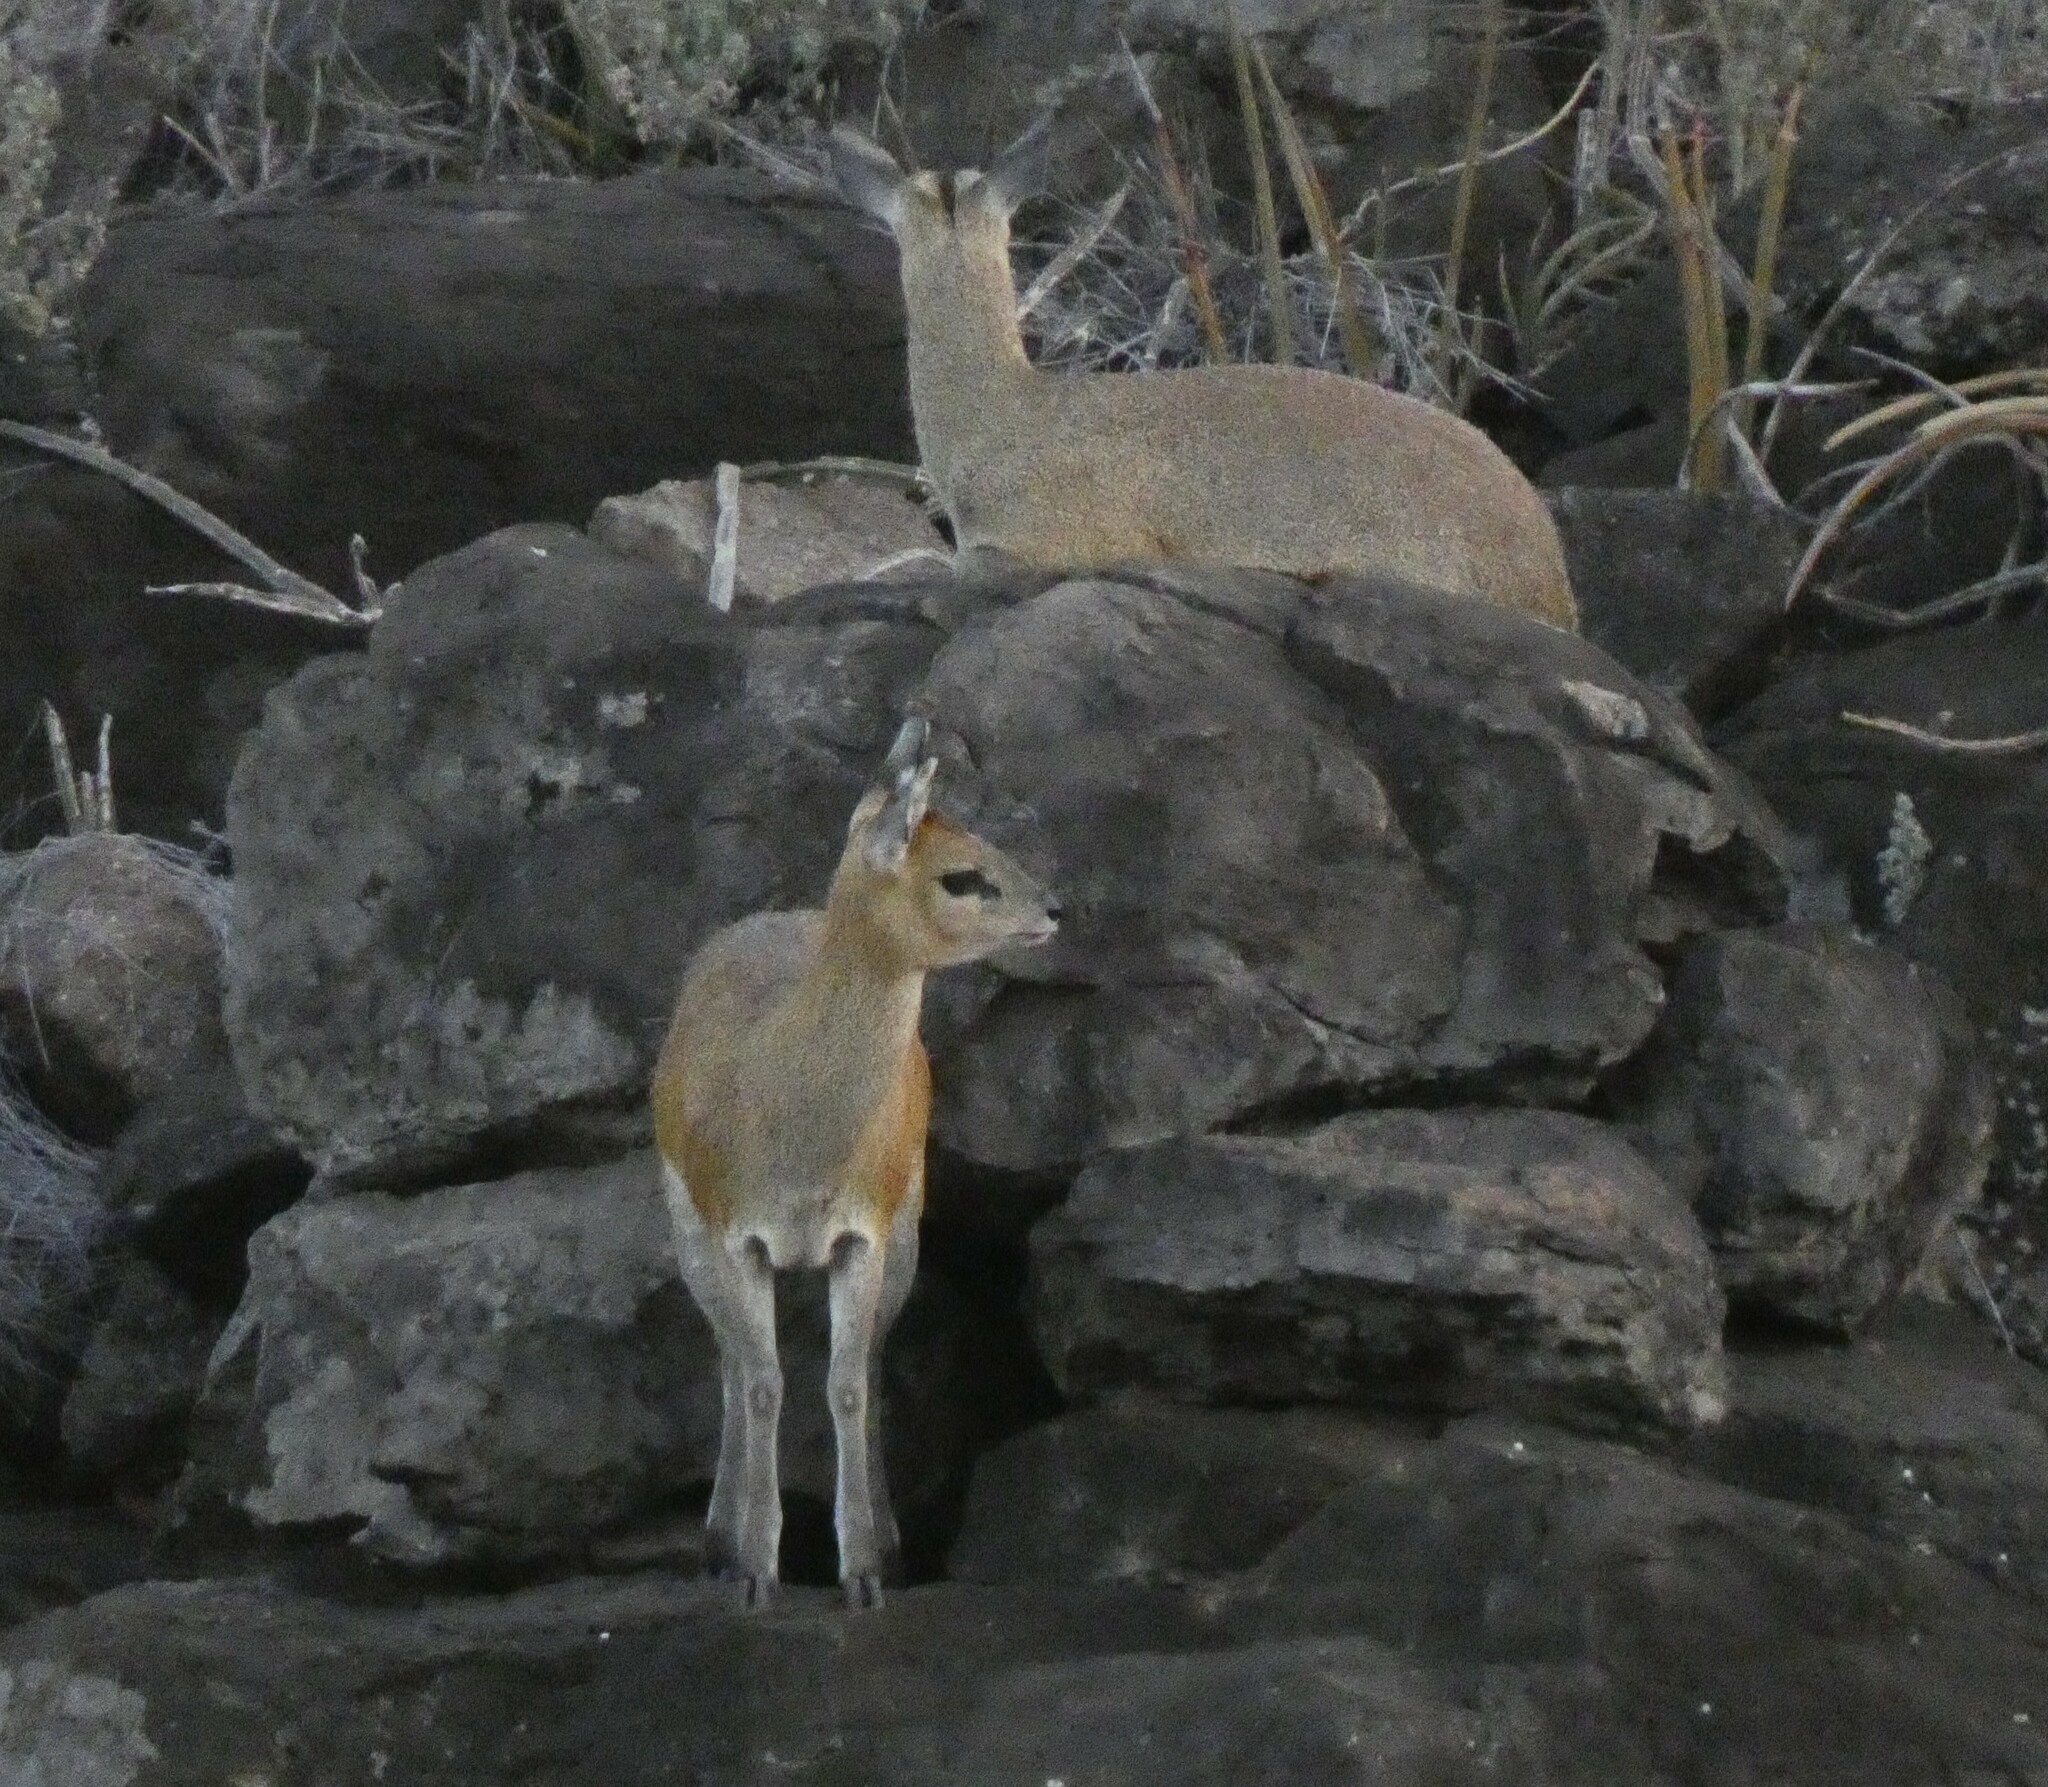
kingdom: Animalia
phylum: Chordata
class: Mammalia
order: Artiodactyla
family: Bovidae
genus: Oreotragus
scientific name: Oreotragus oreotragus
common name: Klipspringer
